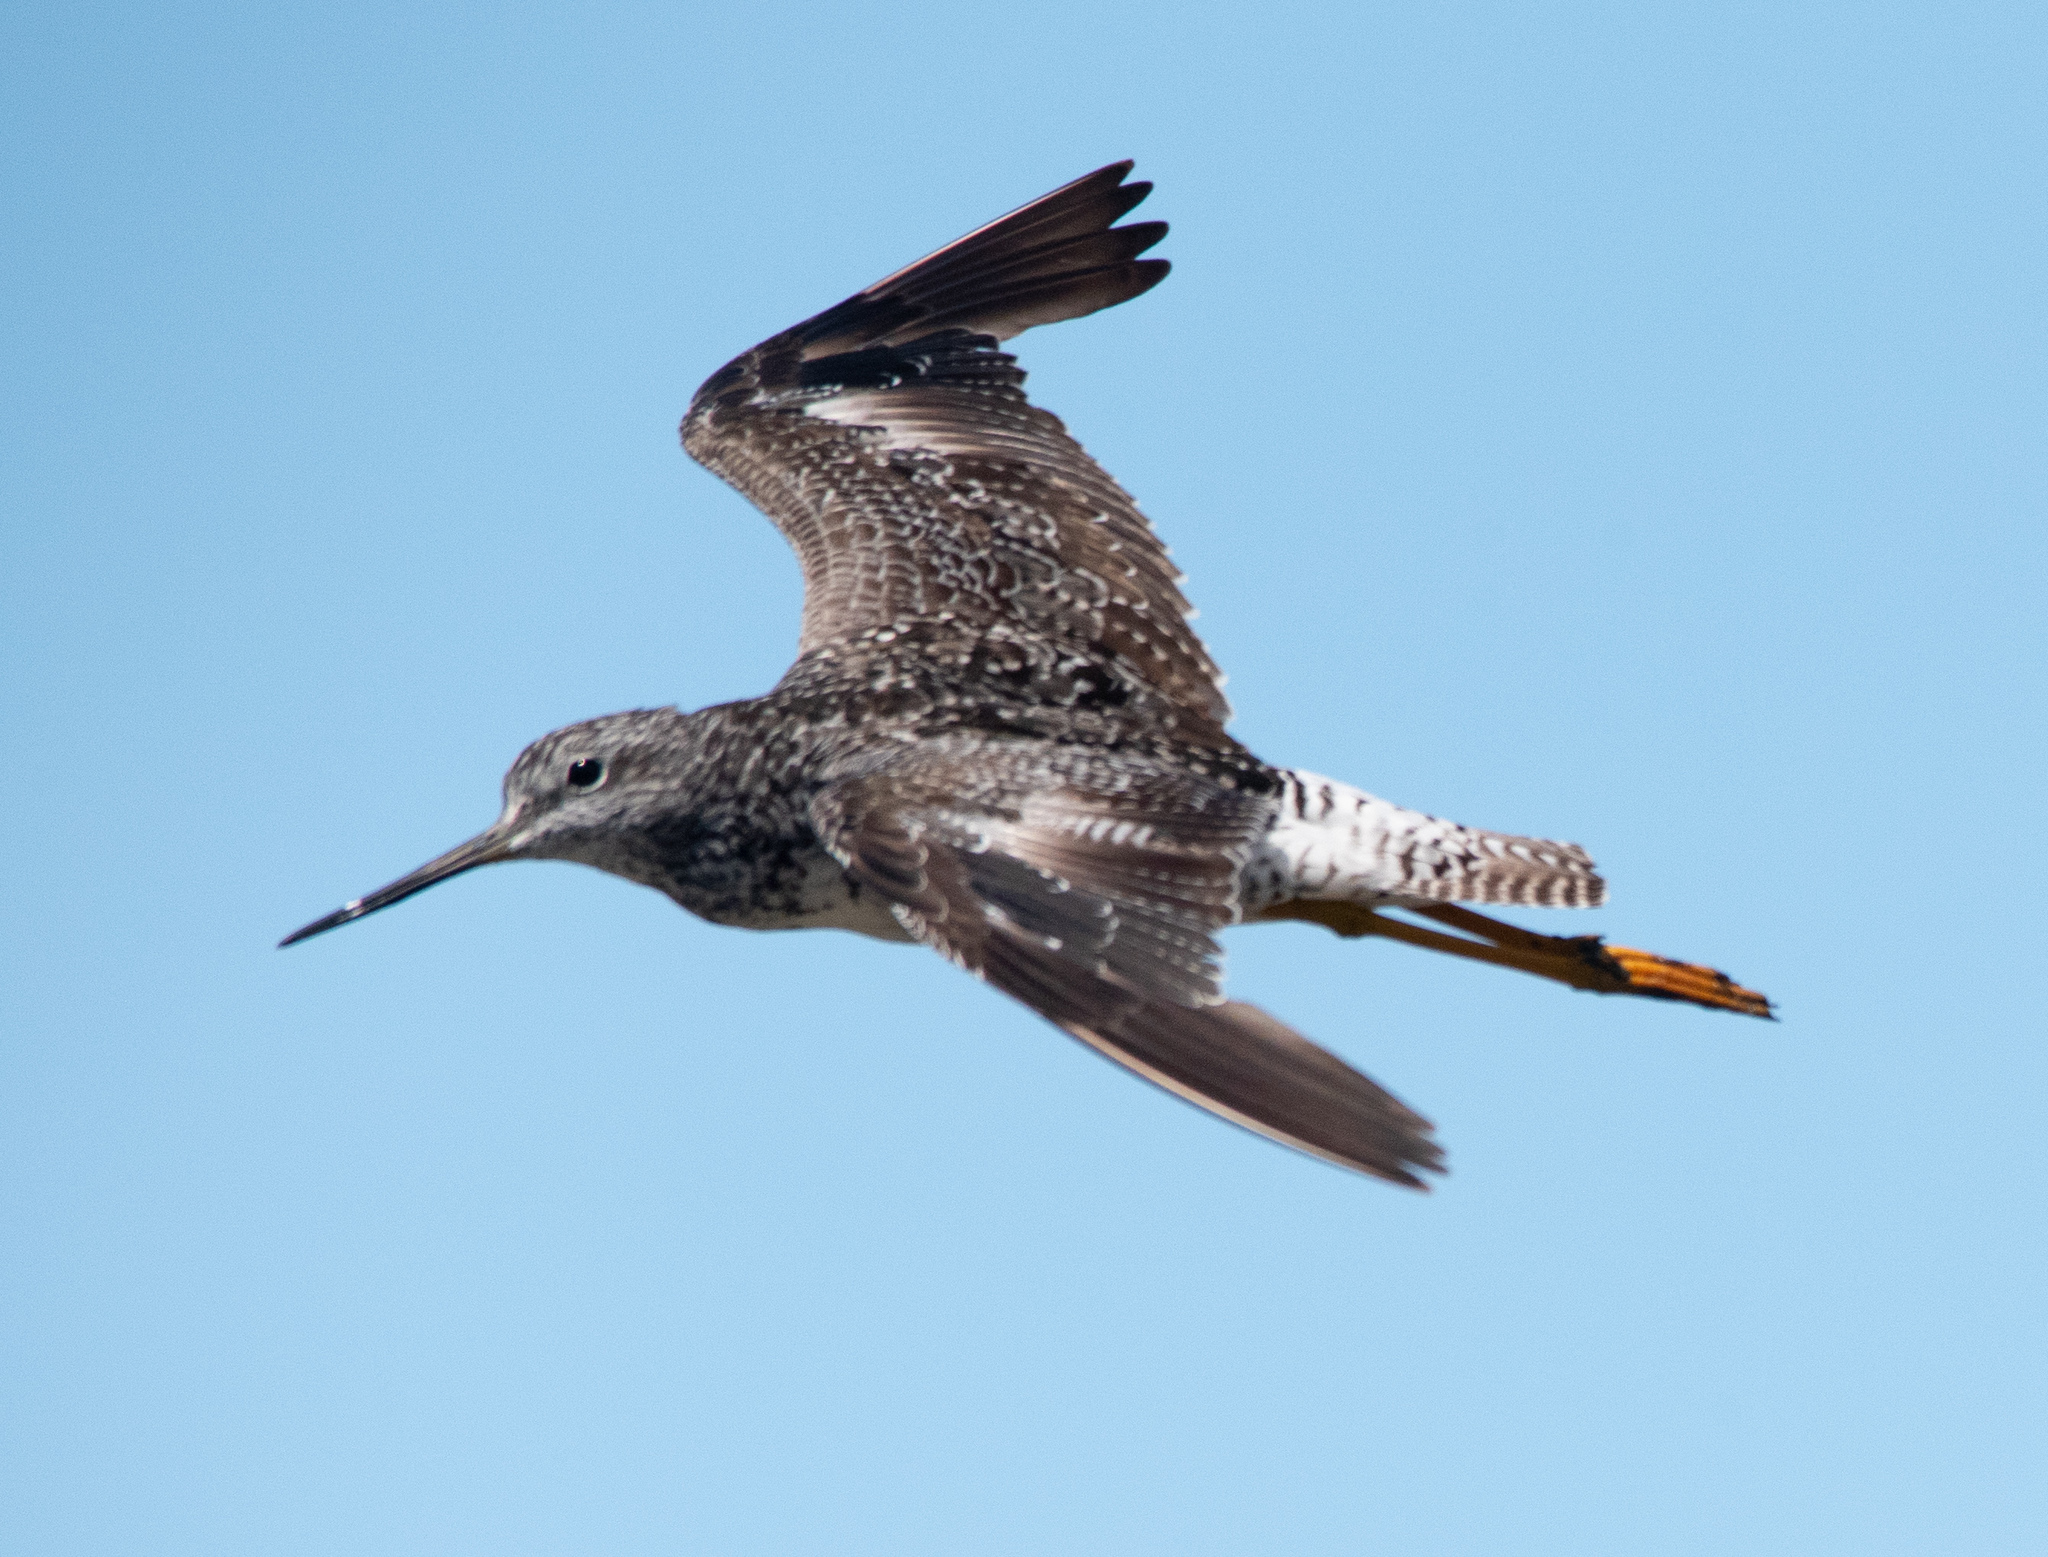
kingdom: Animalia
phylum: Chordata
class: Aves
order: Charadriiformes
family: Scolopacidae
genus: Tringa
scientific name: Tringa melanoleuca
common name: Greater yellowlegs
